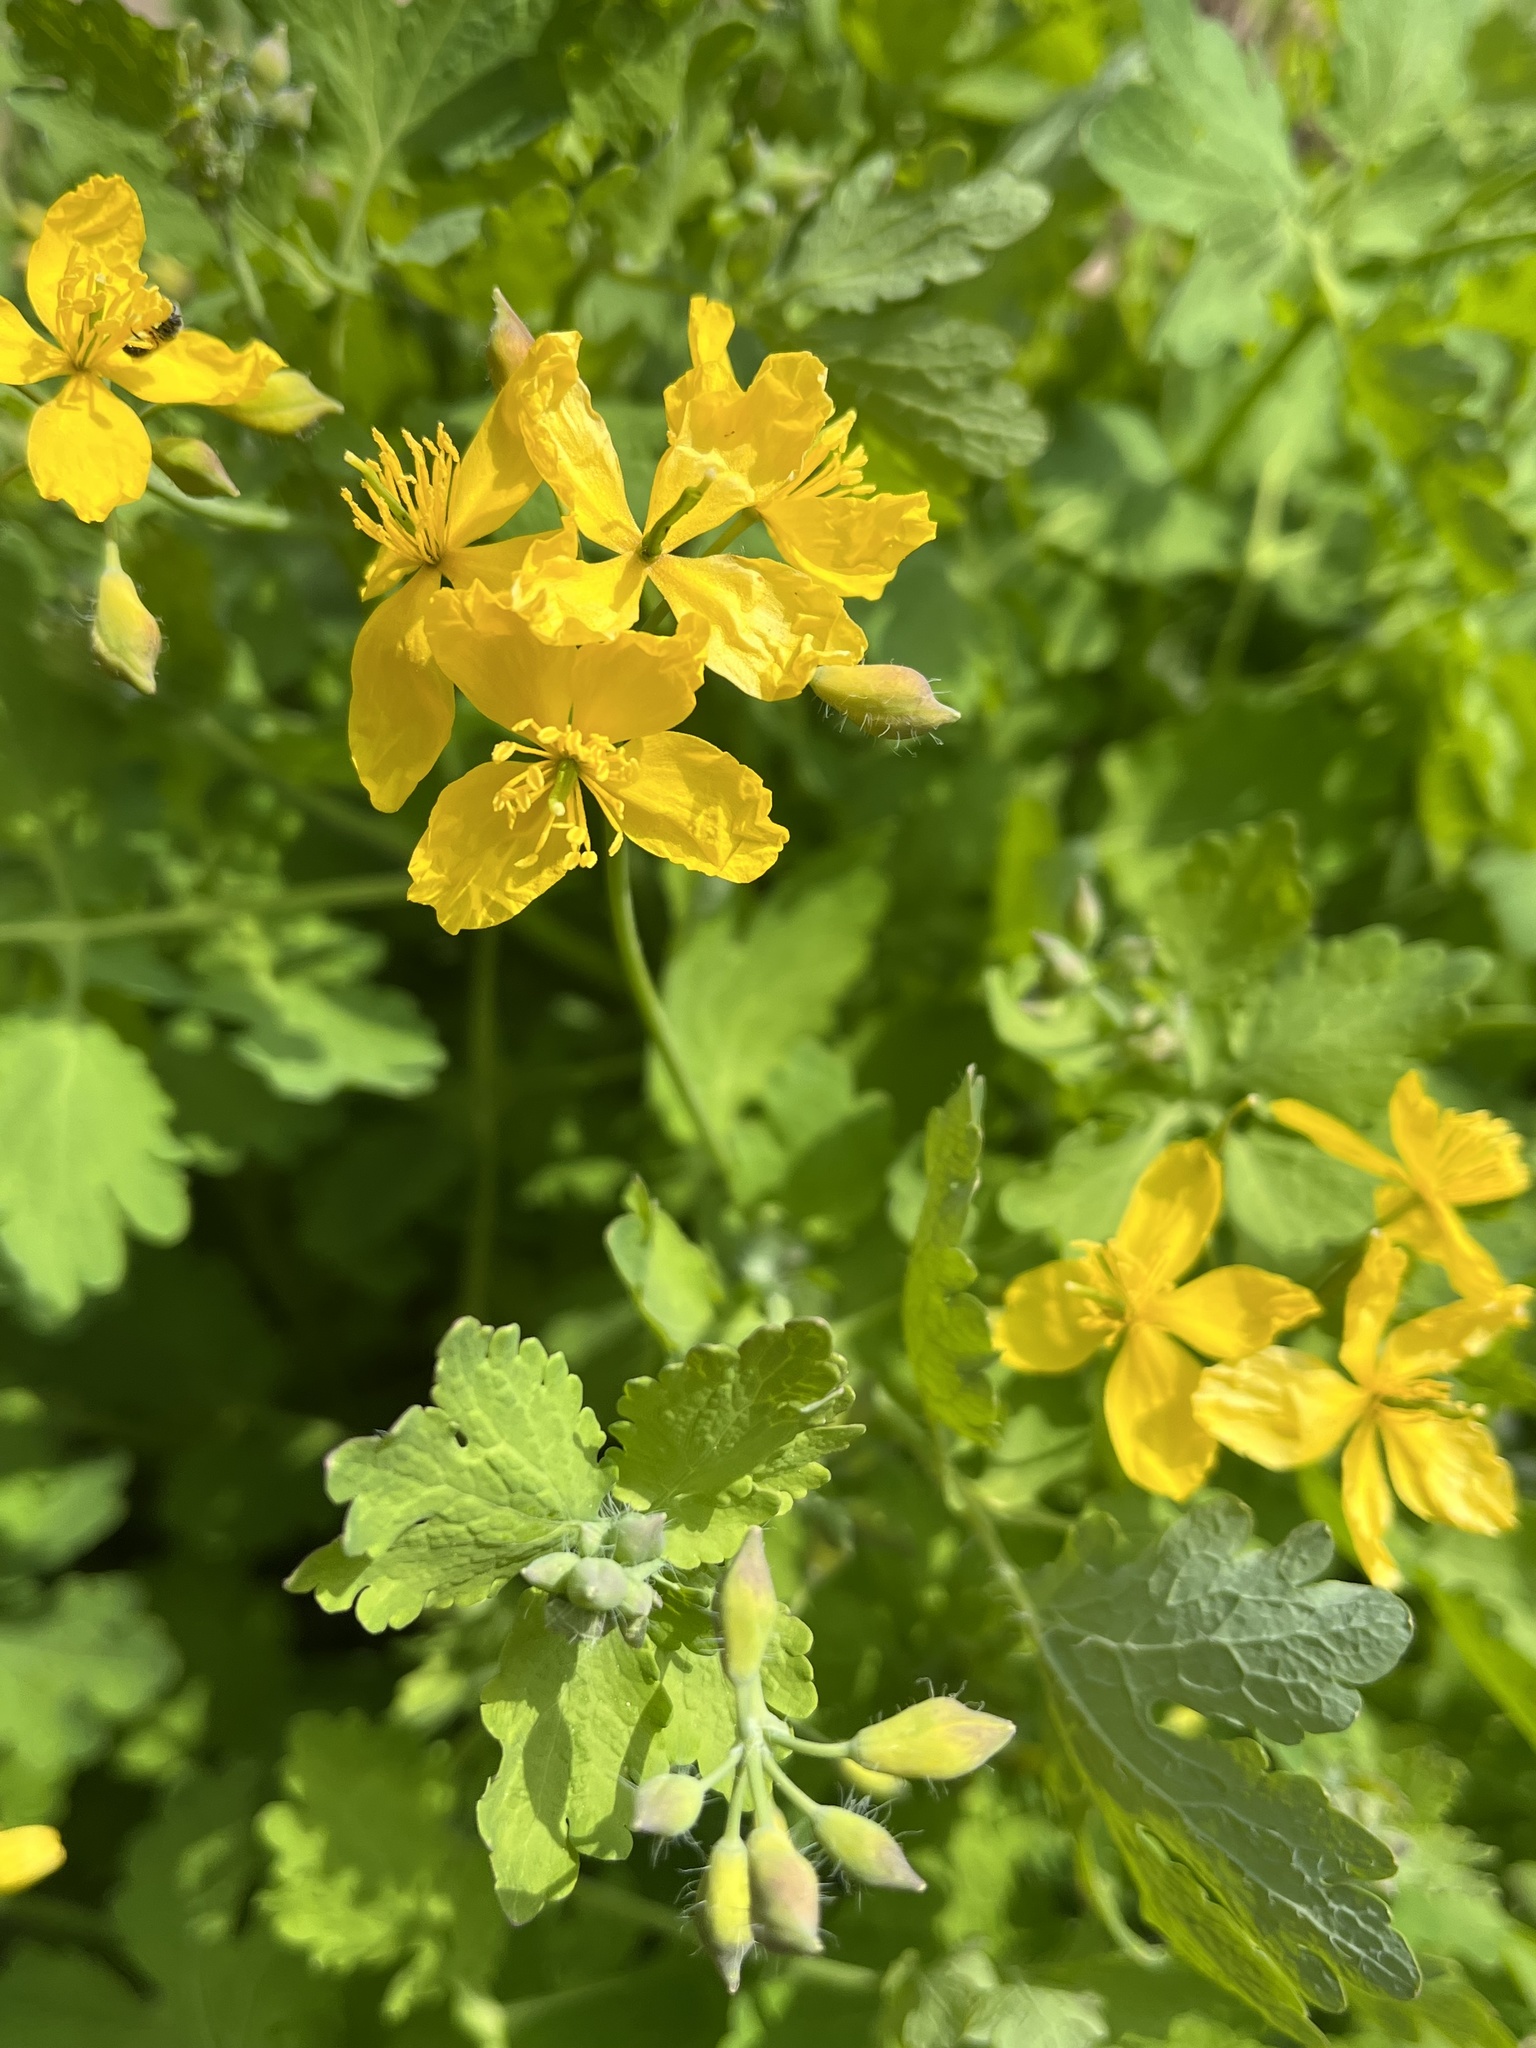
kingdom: Plantae
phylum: Tracheophyta
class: Magnoliopsida
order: Ranunculales
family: Papaveraceae
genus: Chelidonium
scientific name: Chelidonium majus
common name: Greater celandine
